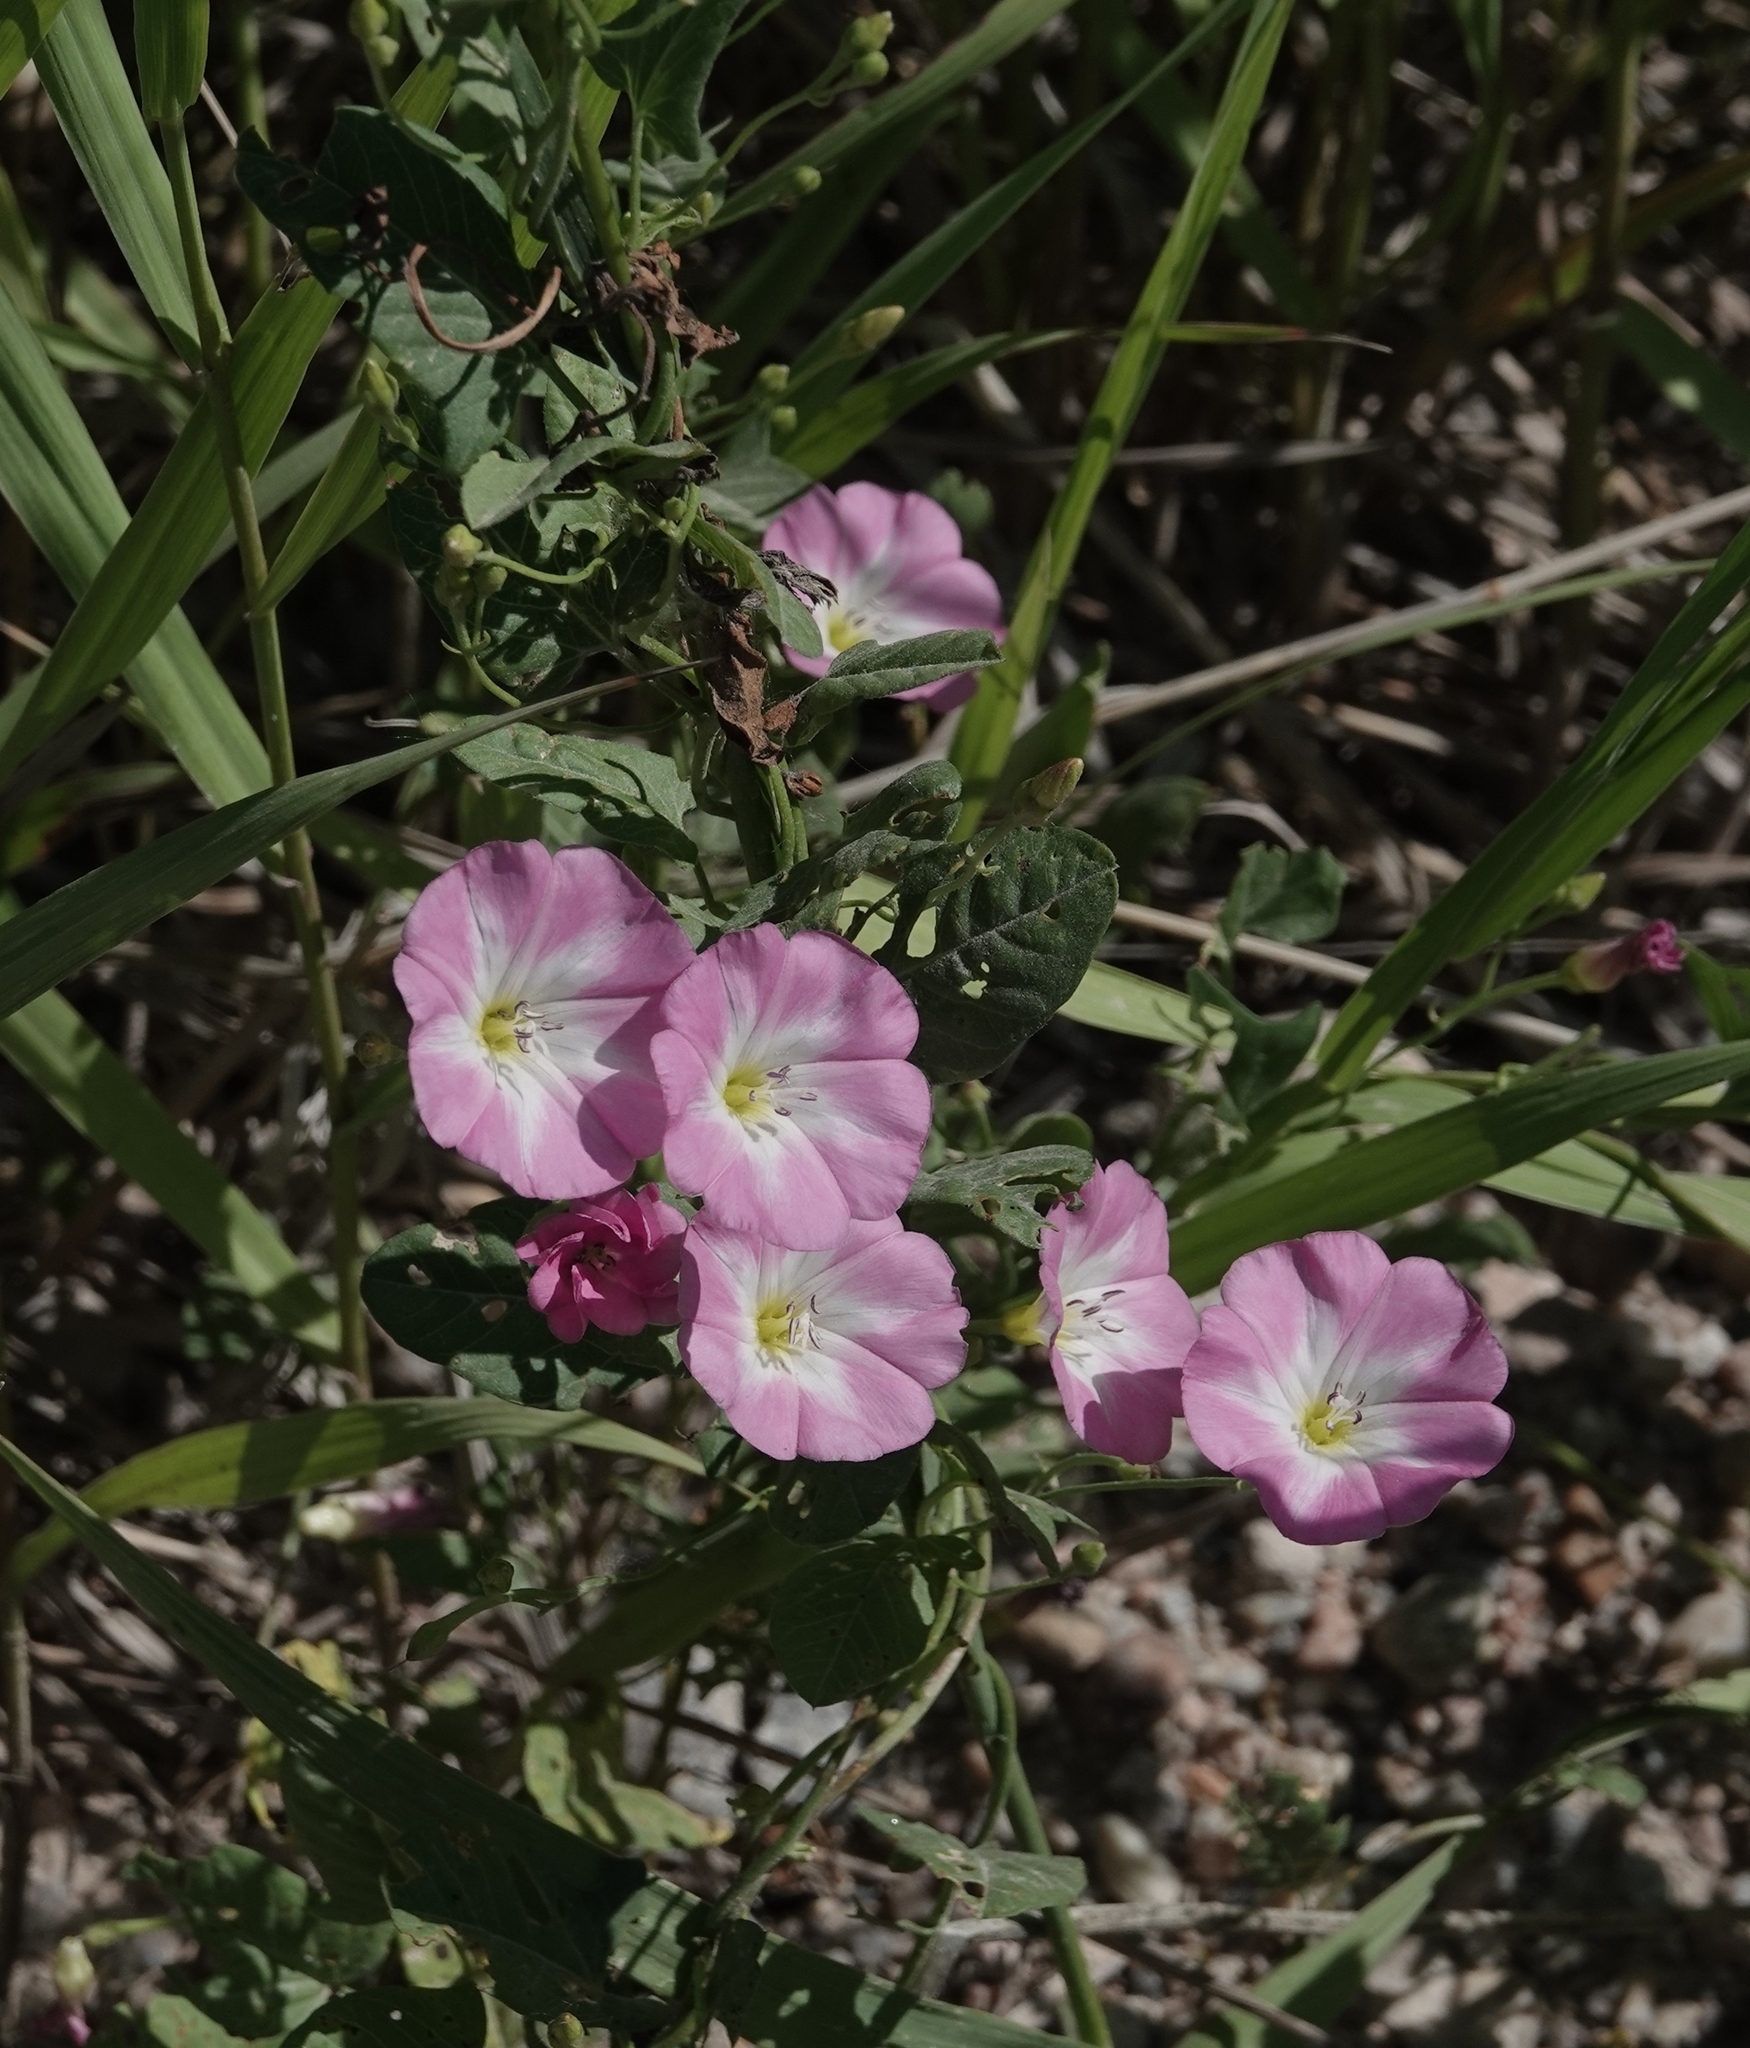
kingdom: Plantae
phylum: Tracheophyta
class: Magnoliopsida
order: Solanales
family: Convolvulaceae
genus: Convolvulus
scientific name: Convolvulus arvensis
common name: Field bindweed
